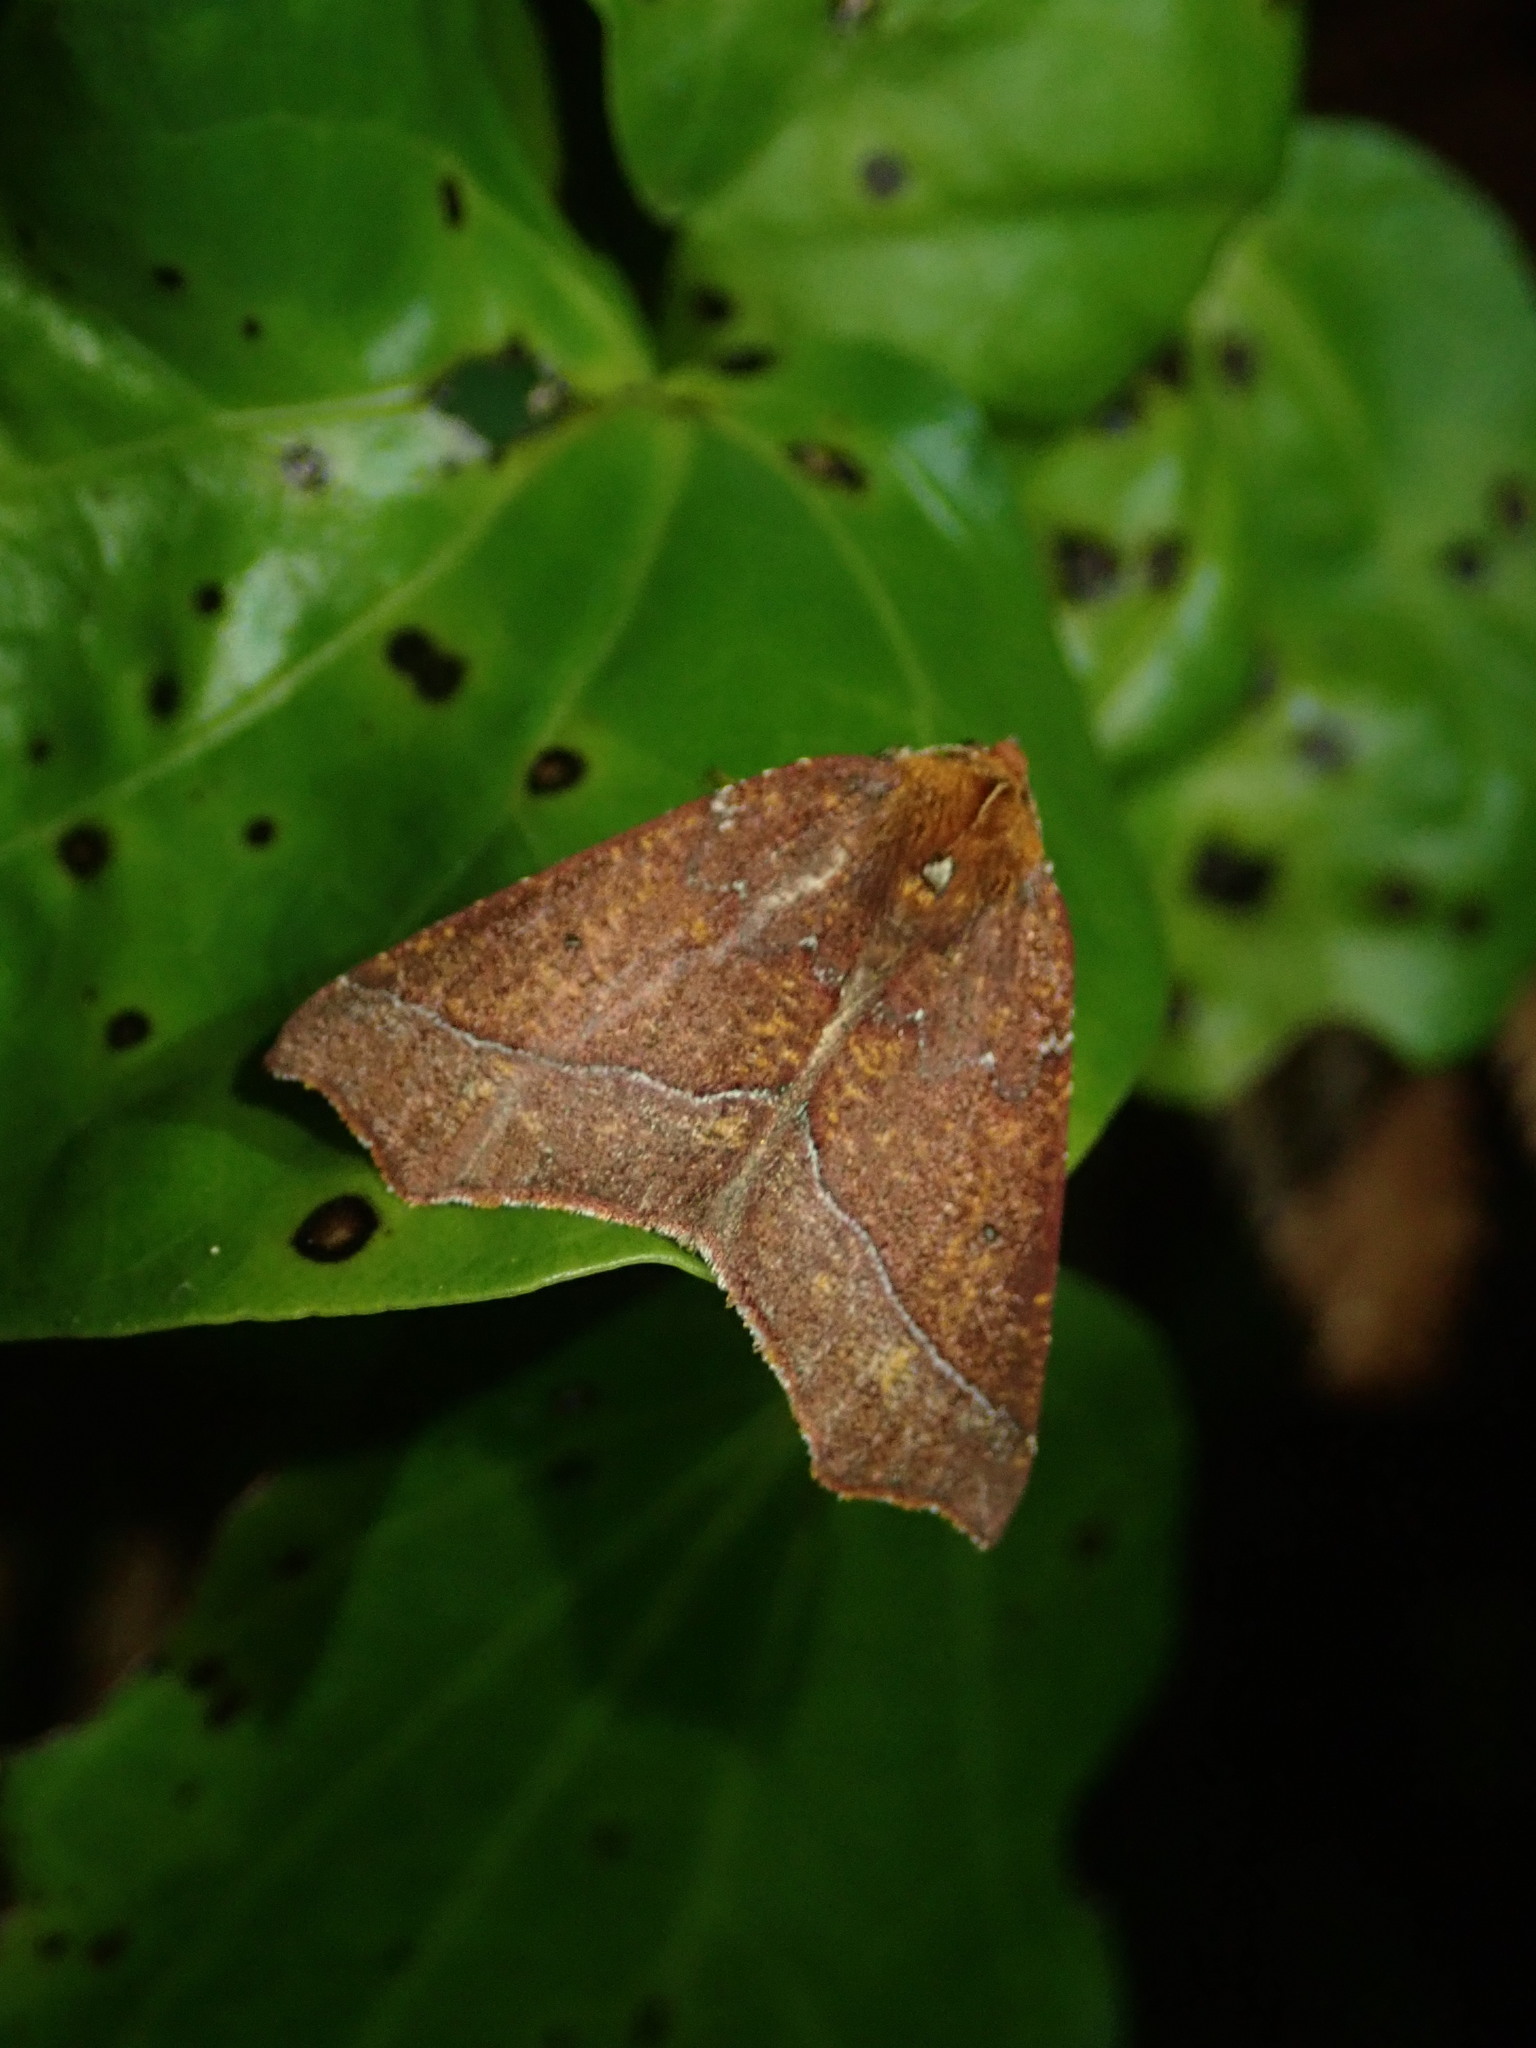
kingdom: Animalia
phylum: Arthropoda
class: Insecta
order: Lepidoptera
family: Geometridae
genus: Ischalis
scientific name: Ischalis nelsonaria
